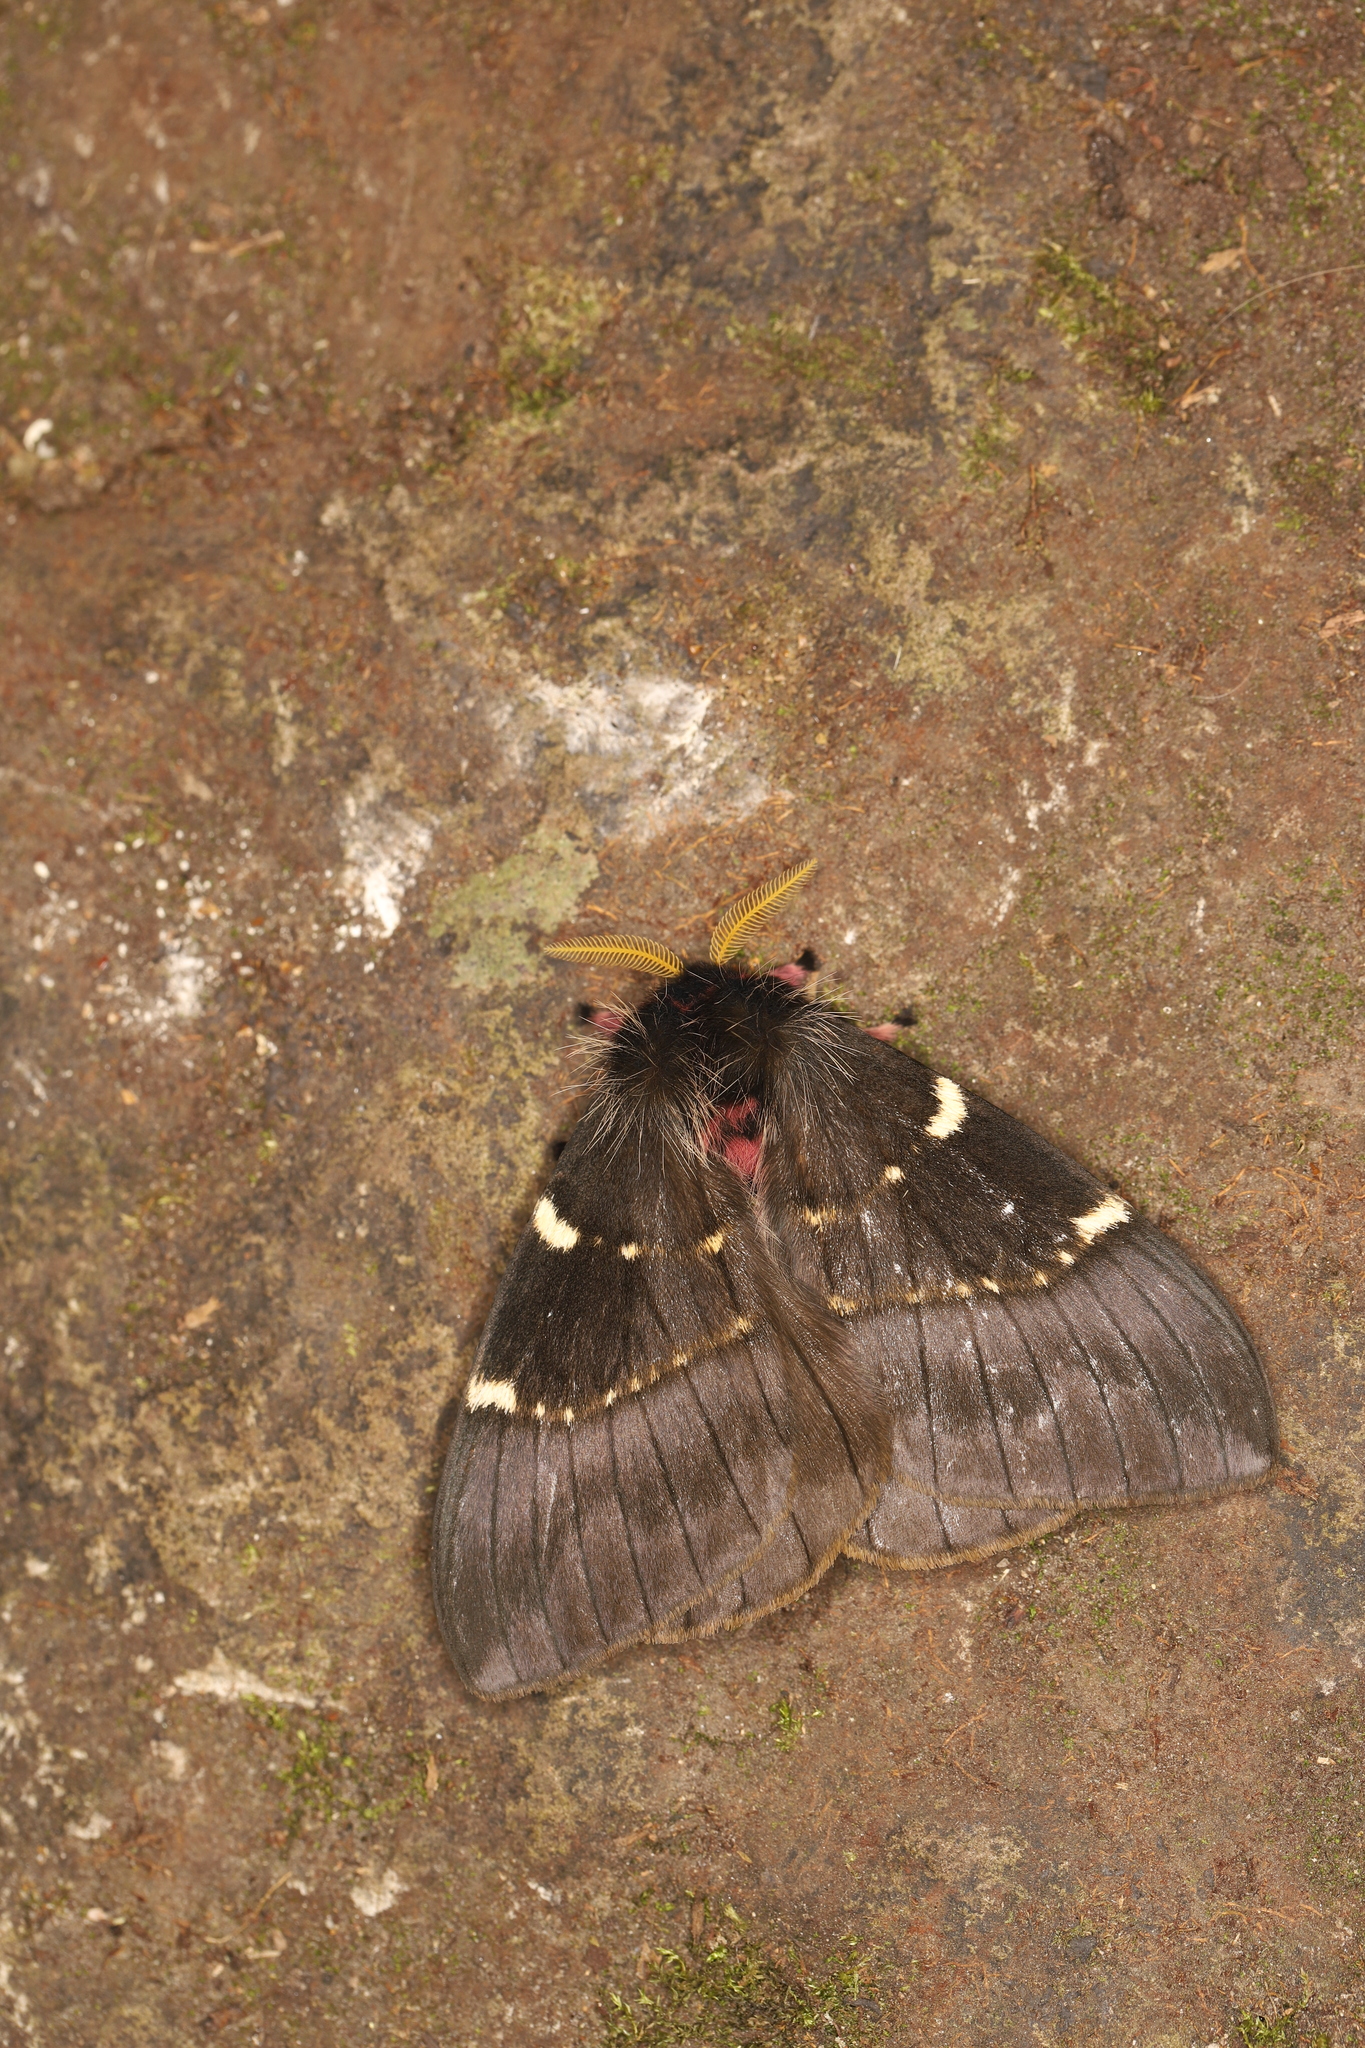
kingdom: Animalia
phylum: Arthropoda
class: Insecta
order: Lepidoptera
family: Saturniidae
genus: Paradirphia
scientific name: Paradirphia andicola
